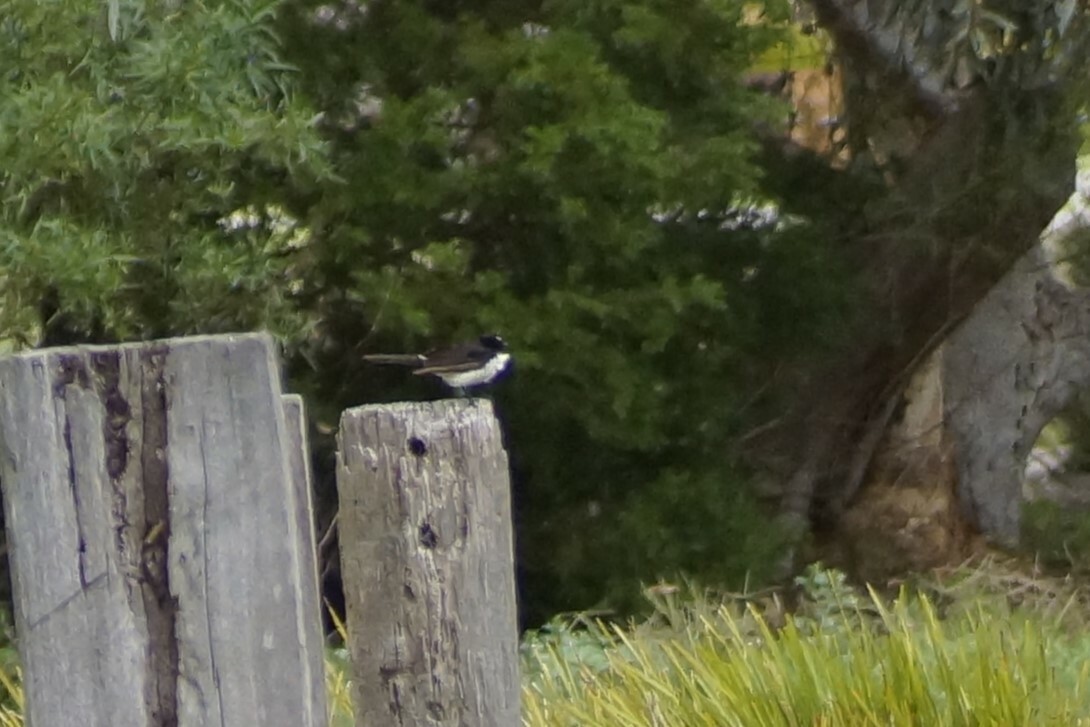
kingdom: Animalia
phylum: Chordata
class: Aves
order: Passeriformes
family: Rhipiduridae
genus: Rhipidura
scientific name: Rhipidura leucophrys
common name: Willie wagtail
